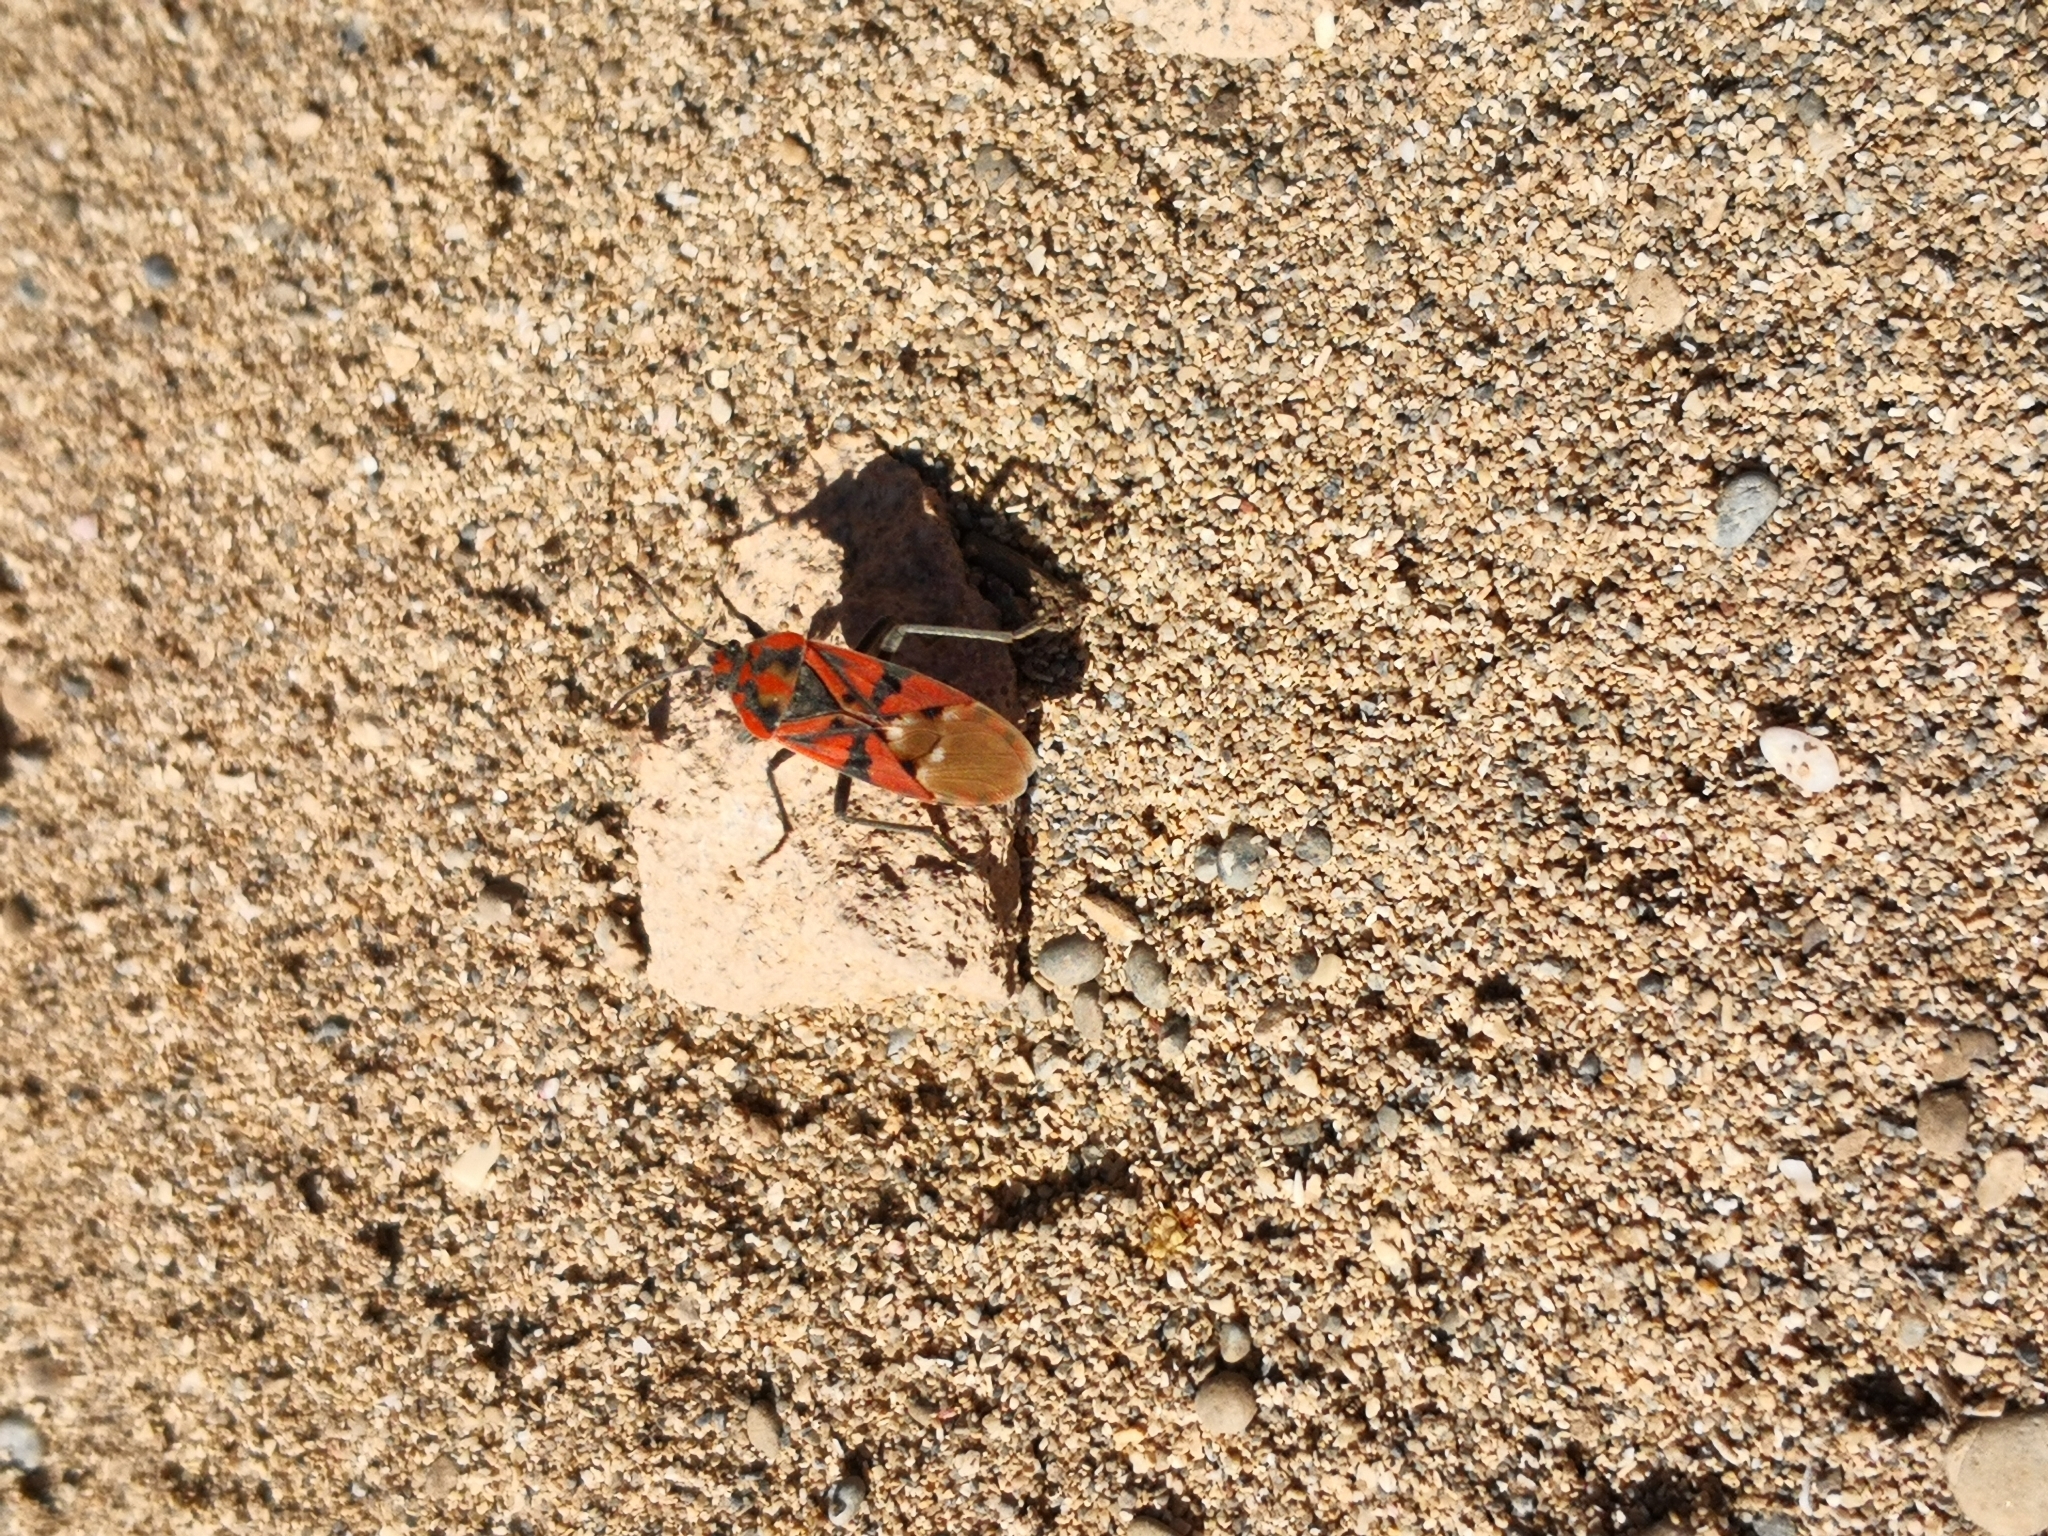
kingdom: Animalia
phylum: Arthropoda
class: Insecta
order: Hemiptera
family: Lygaeidae
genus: Spilostethus
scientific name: Spilostethus pandurus
